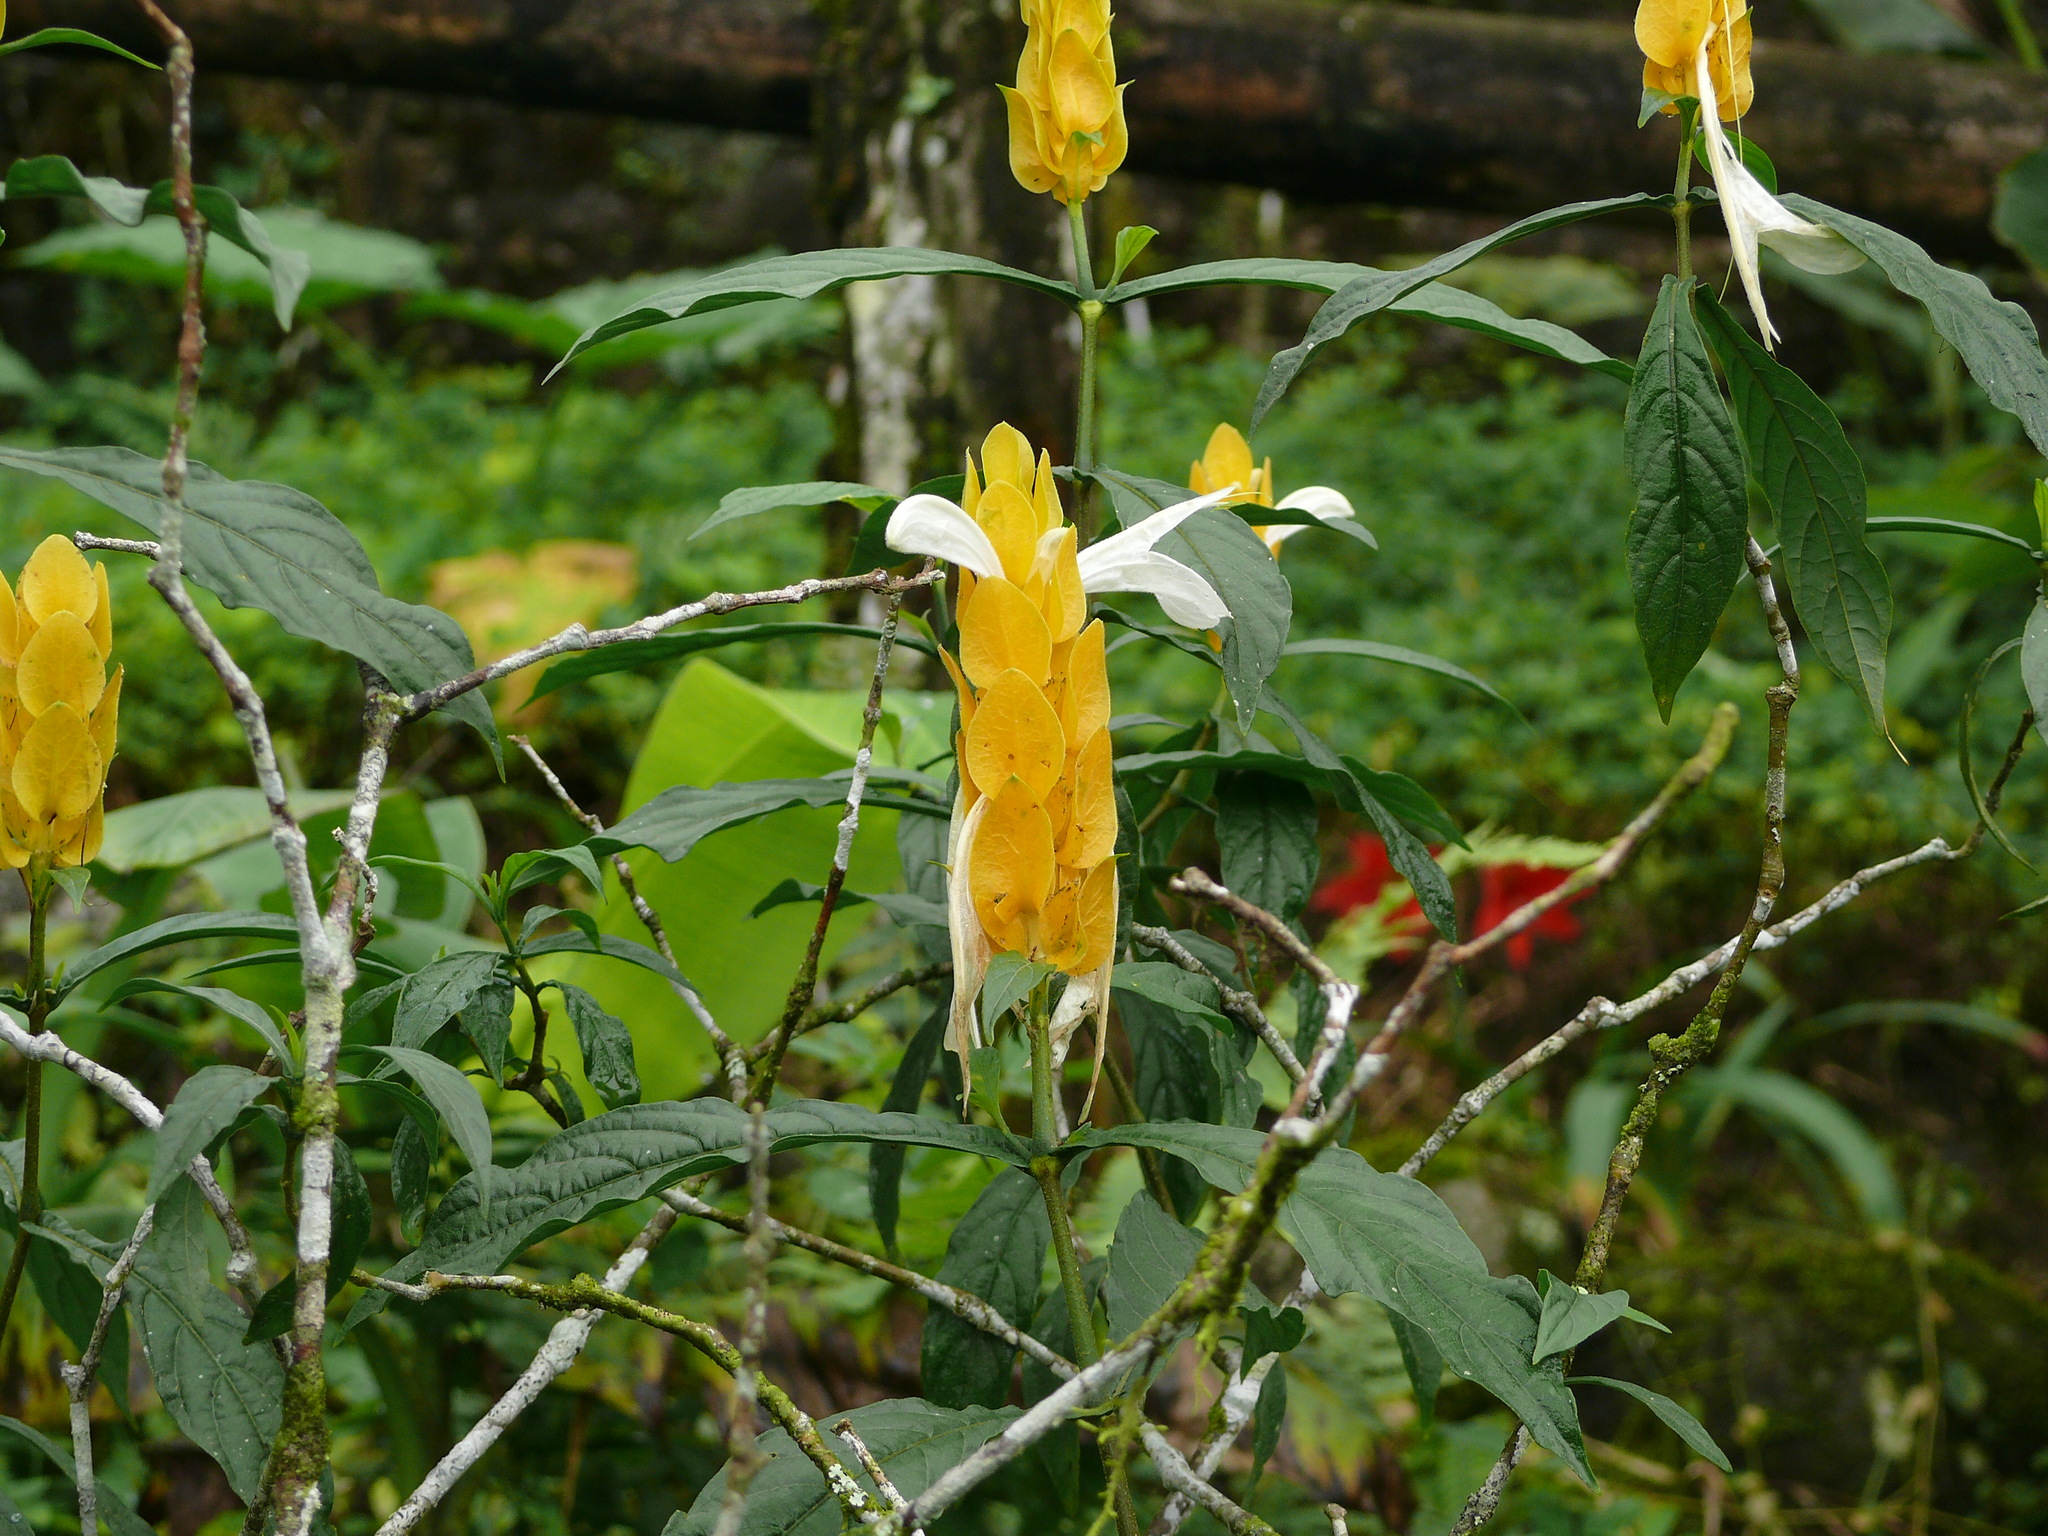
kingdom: Plantae
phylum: Tracheophyta
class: Magnoliopsida
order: Lamiales
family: Acanthaceae
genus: Pachystachys
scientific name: Pachystachys lutea
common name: Golden shrimp-plant
